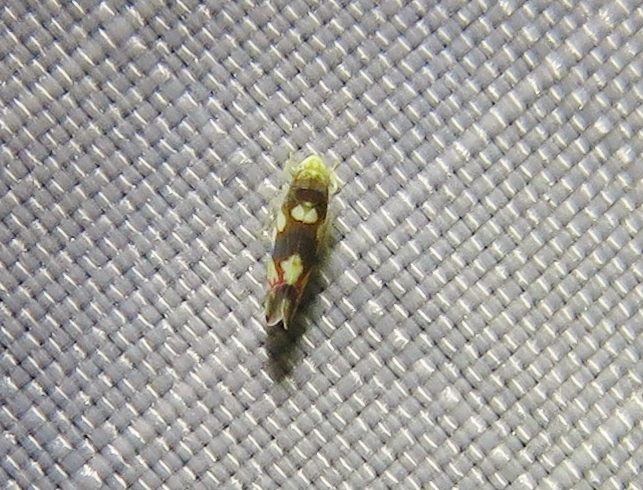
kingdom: Animalia
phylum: Arthropoda
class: Insecta
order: Hemiptera
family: Cicadellidae
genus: Erythroneura
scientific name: Erythroneura elegans
